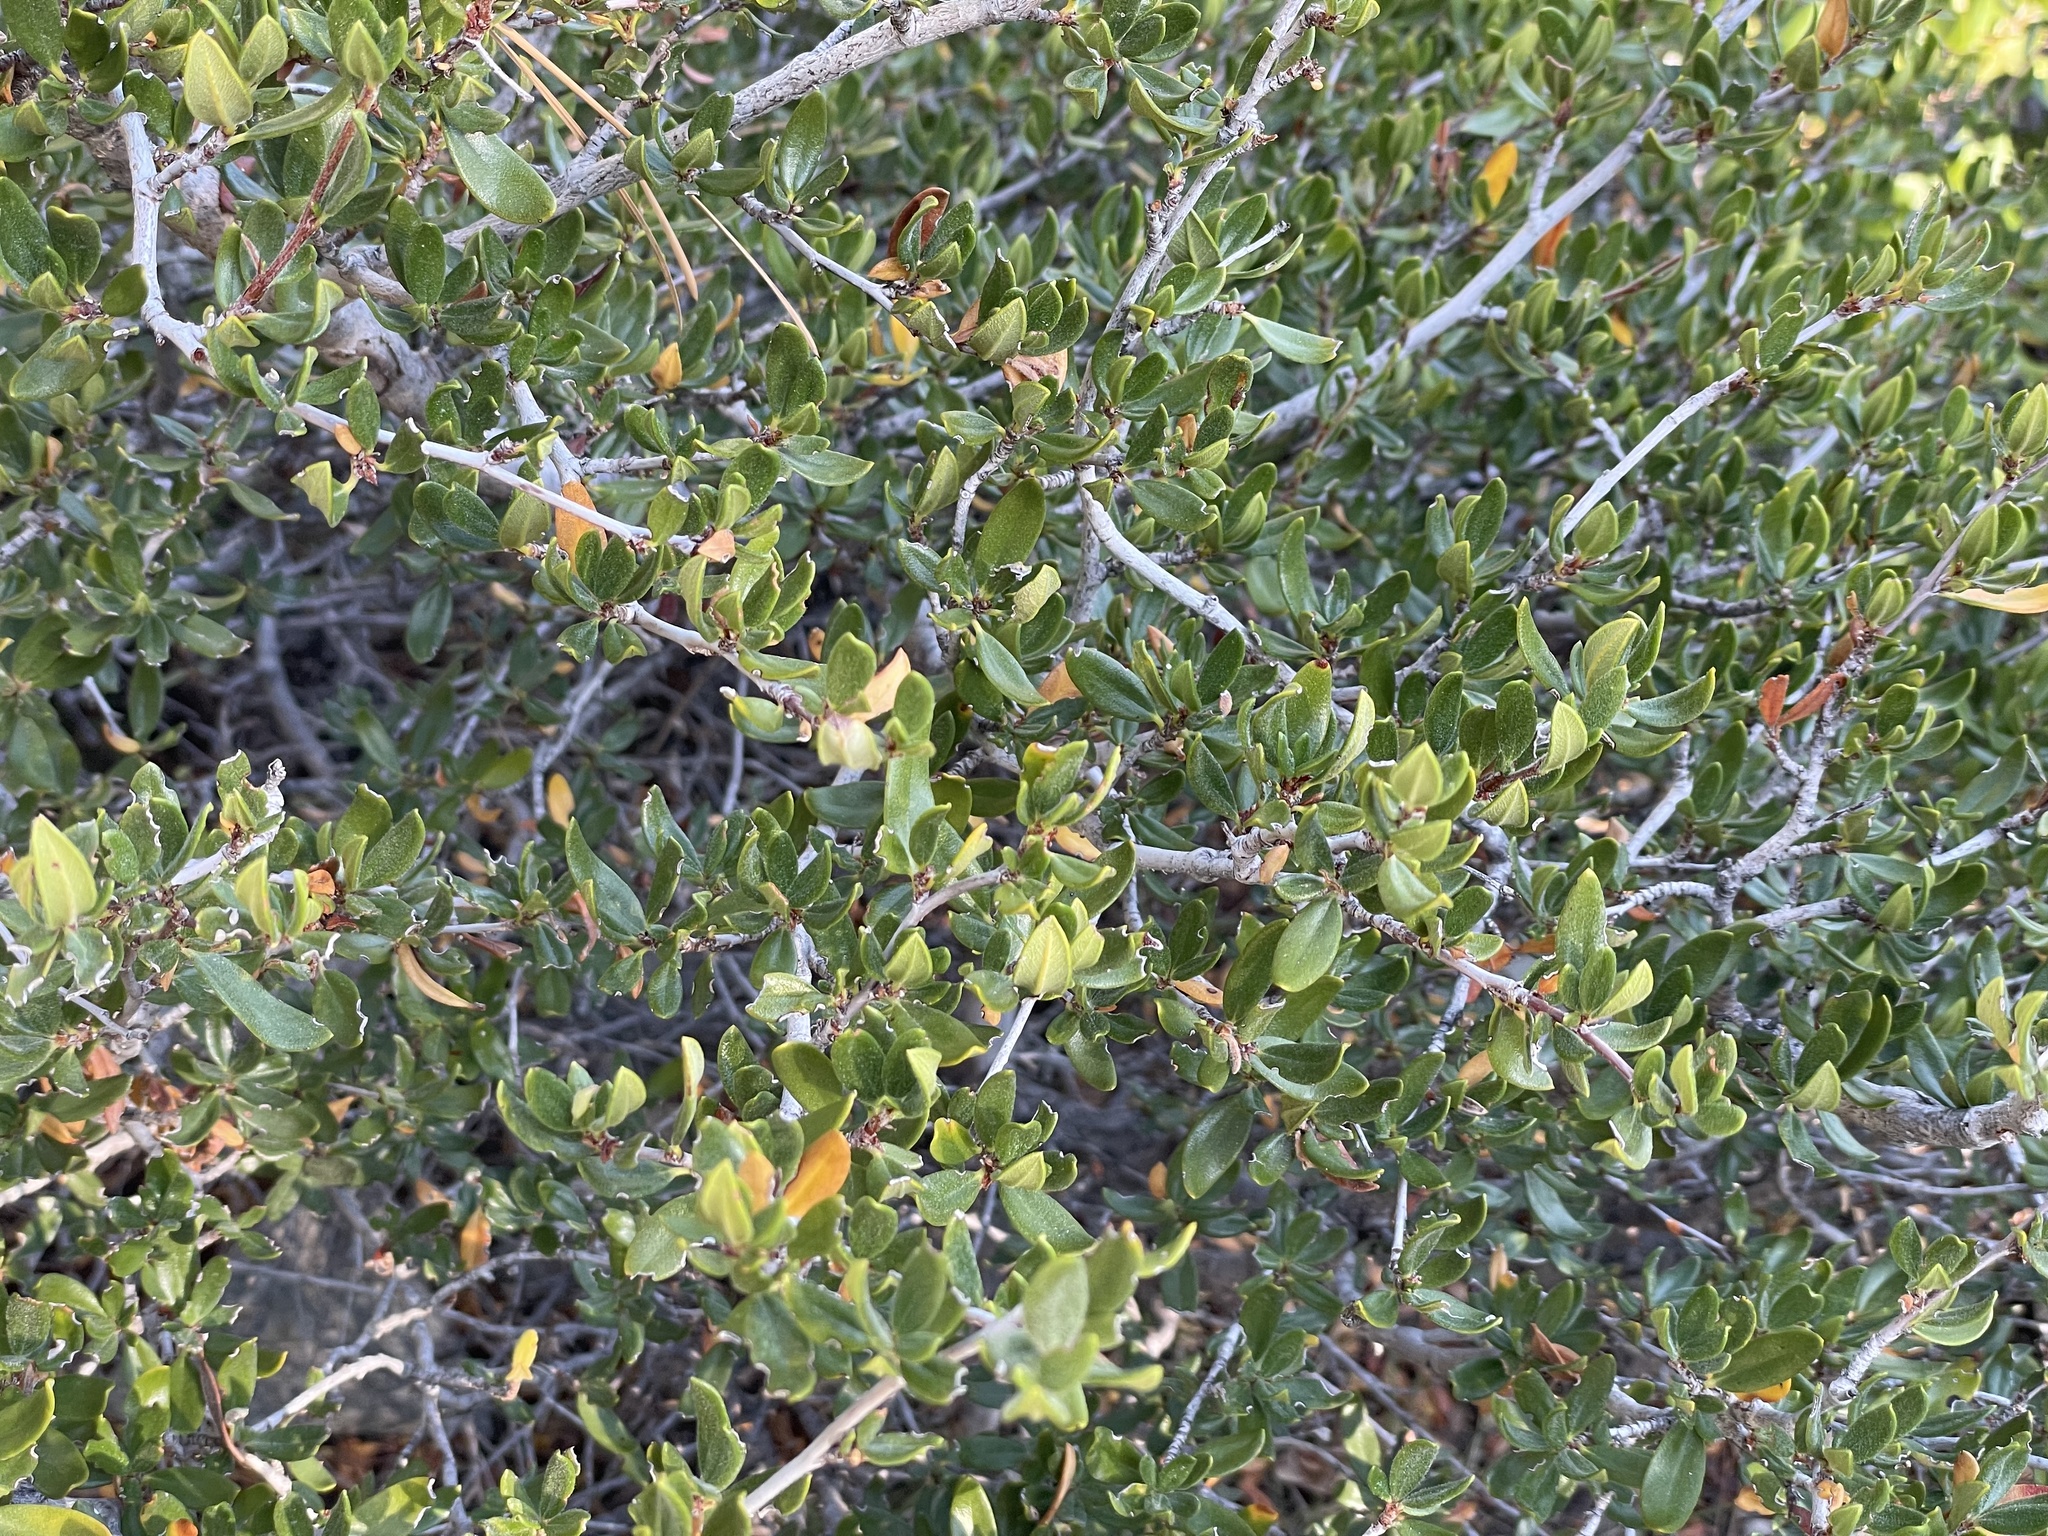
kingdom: Plantae
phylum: Tracheophyta
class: Magnoliopsida
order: Rosales
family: Rosaceae
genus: Cercocarpus
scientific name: Cercocarpus ledifolius
